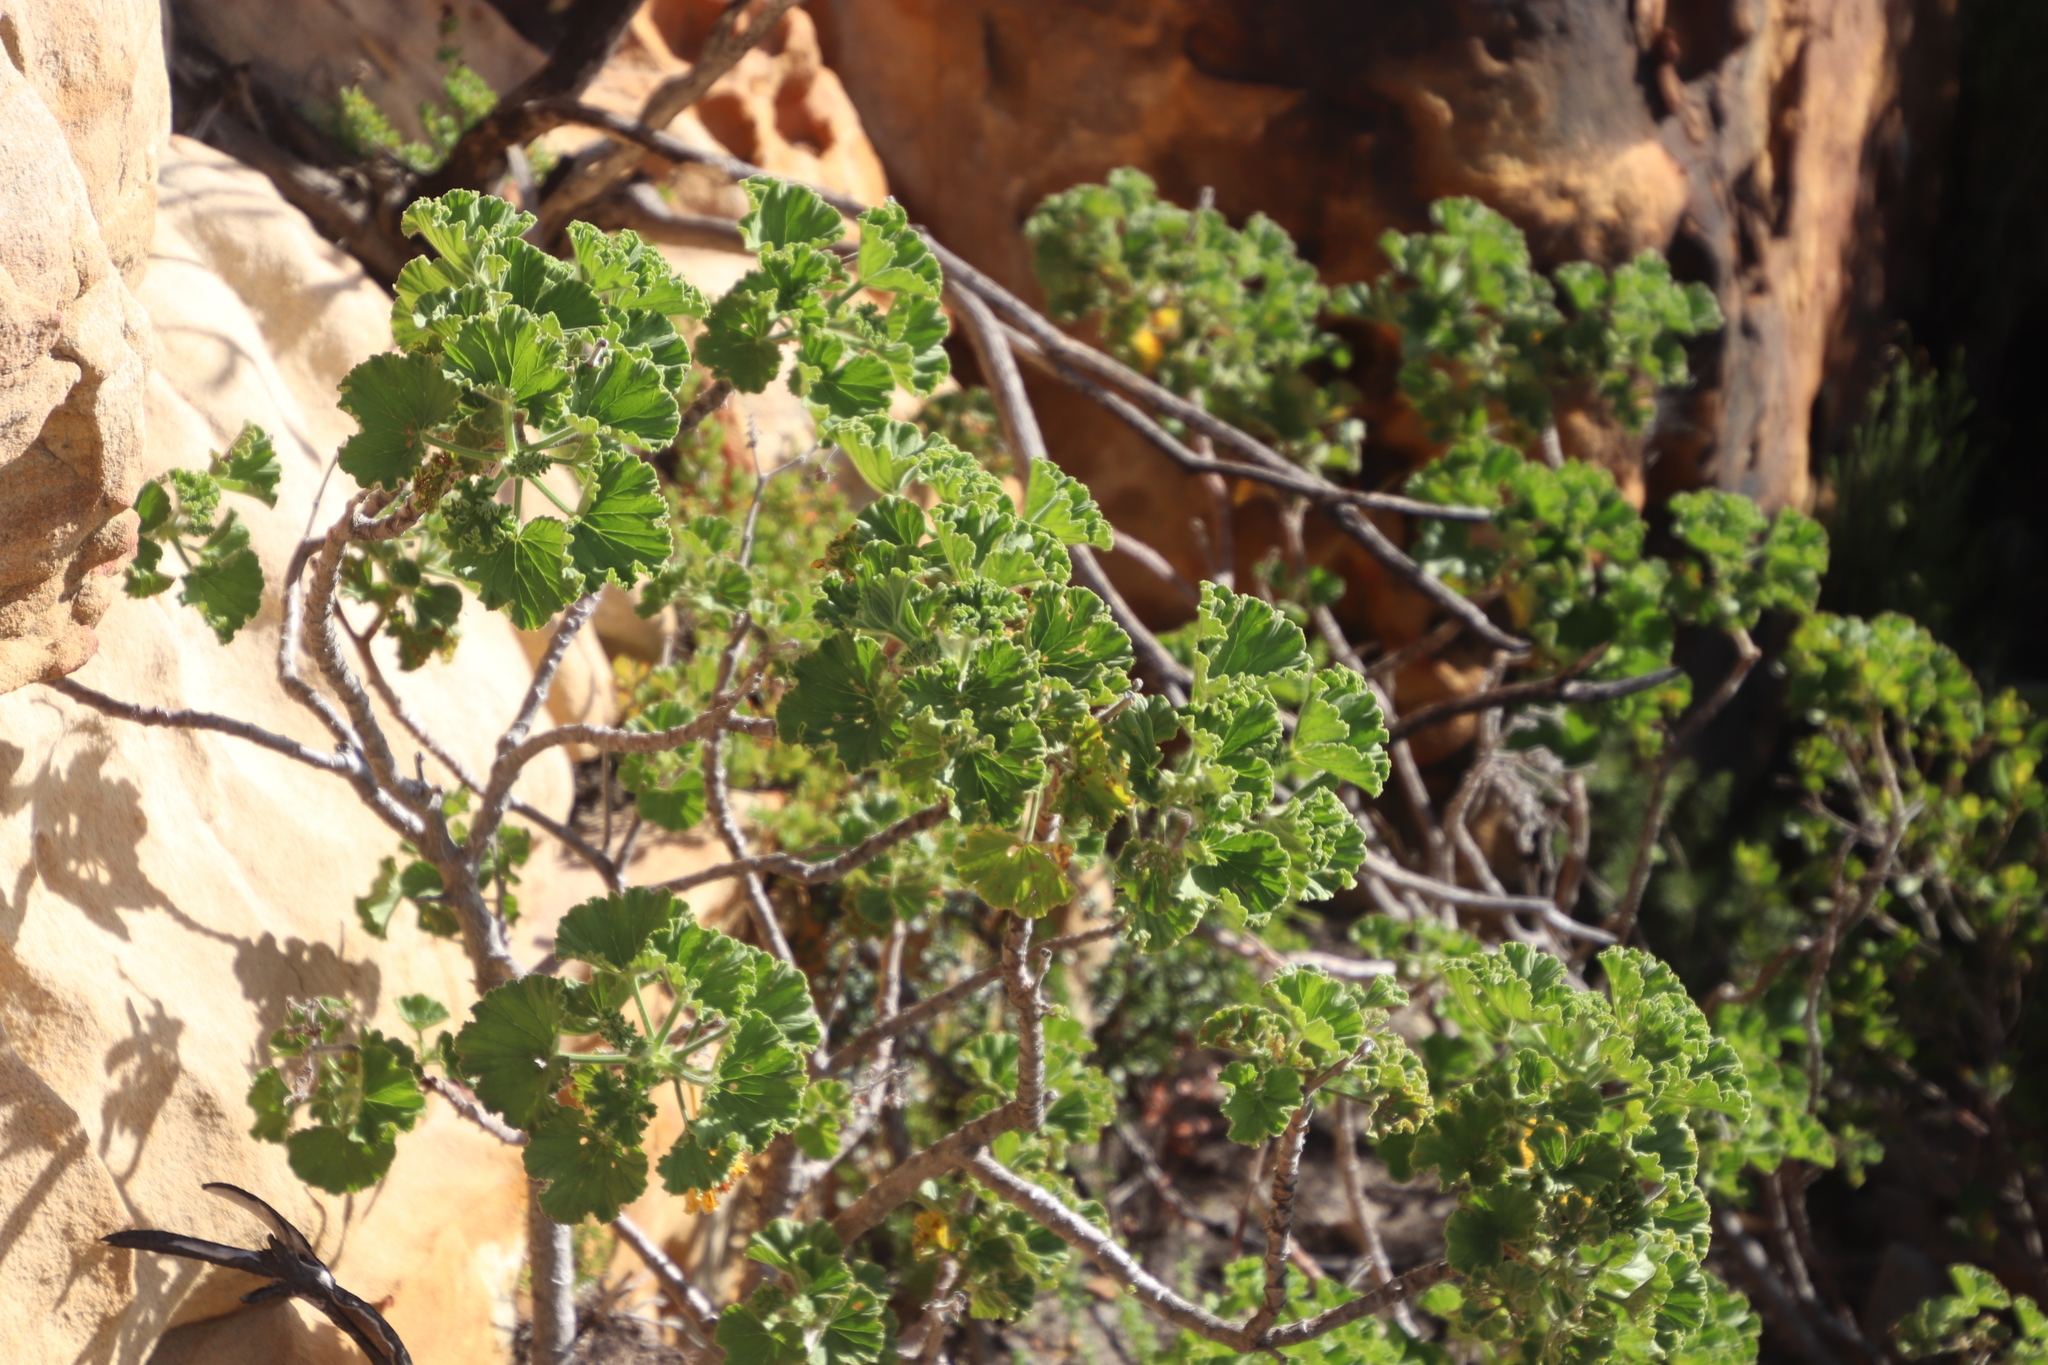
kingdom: Plantae
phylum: Tracheophyta
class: Magnoliopsida
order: Geraniales
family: Geraniaceae
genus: Pelargonium
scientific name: Pelargonium cucullatum
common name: Tree pelargonium
